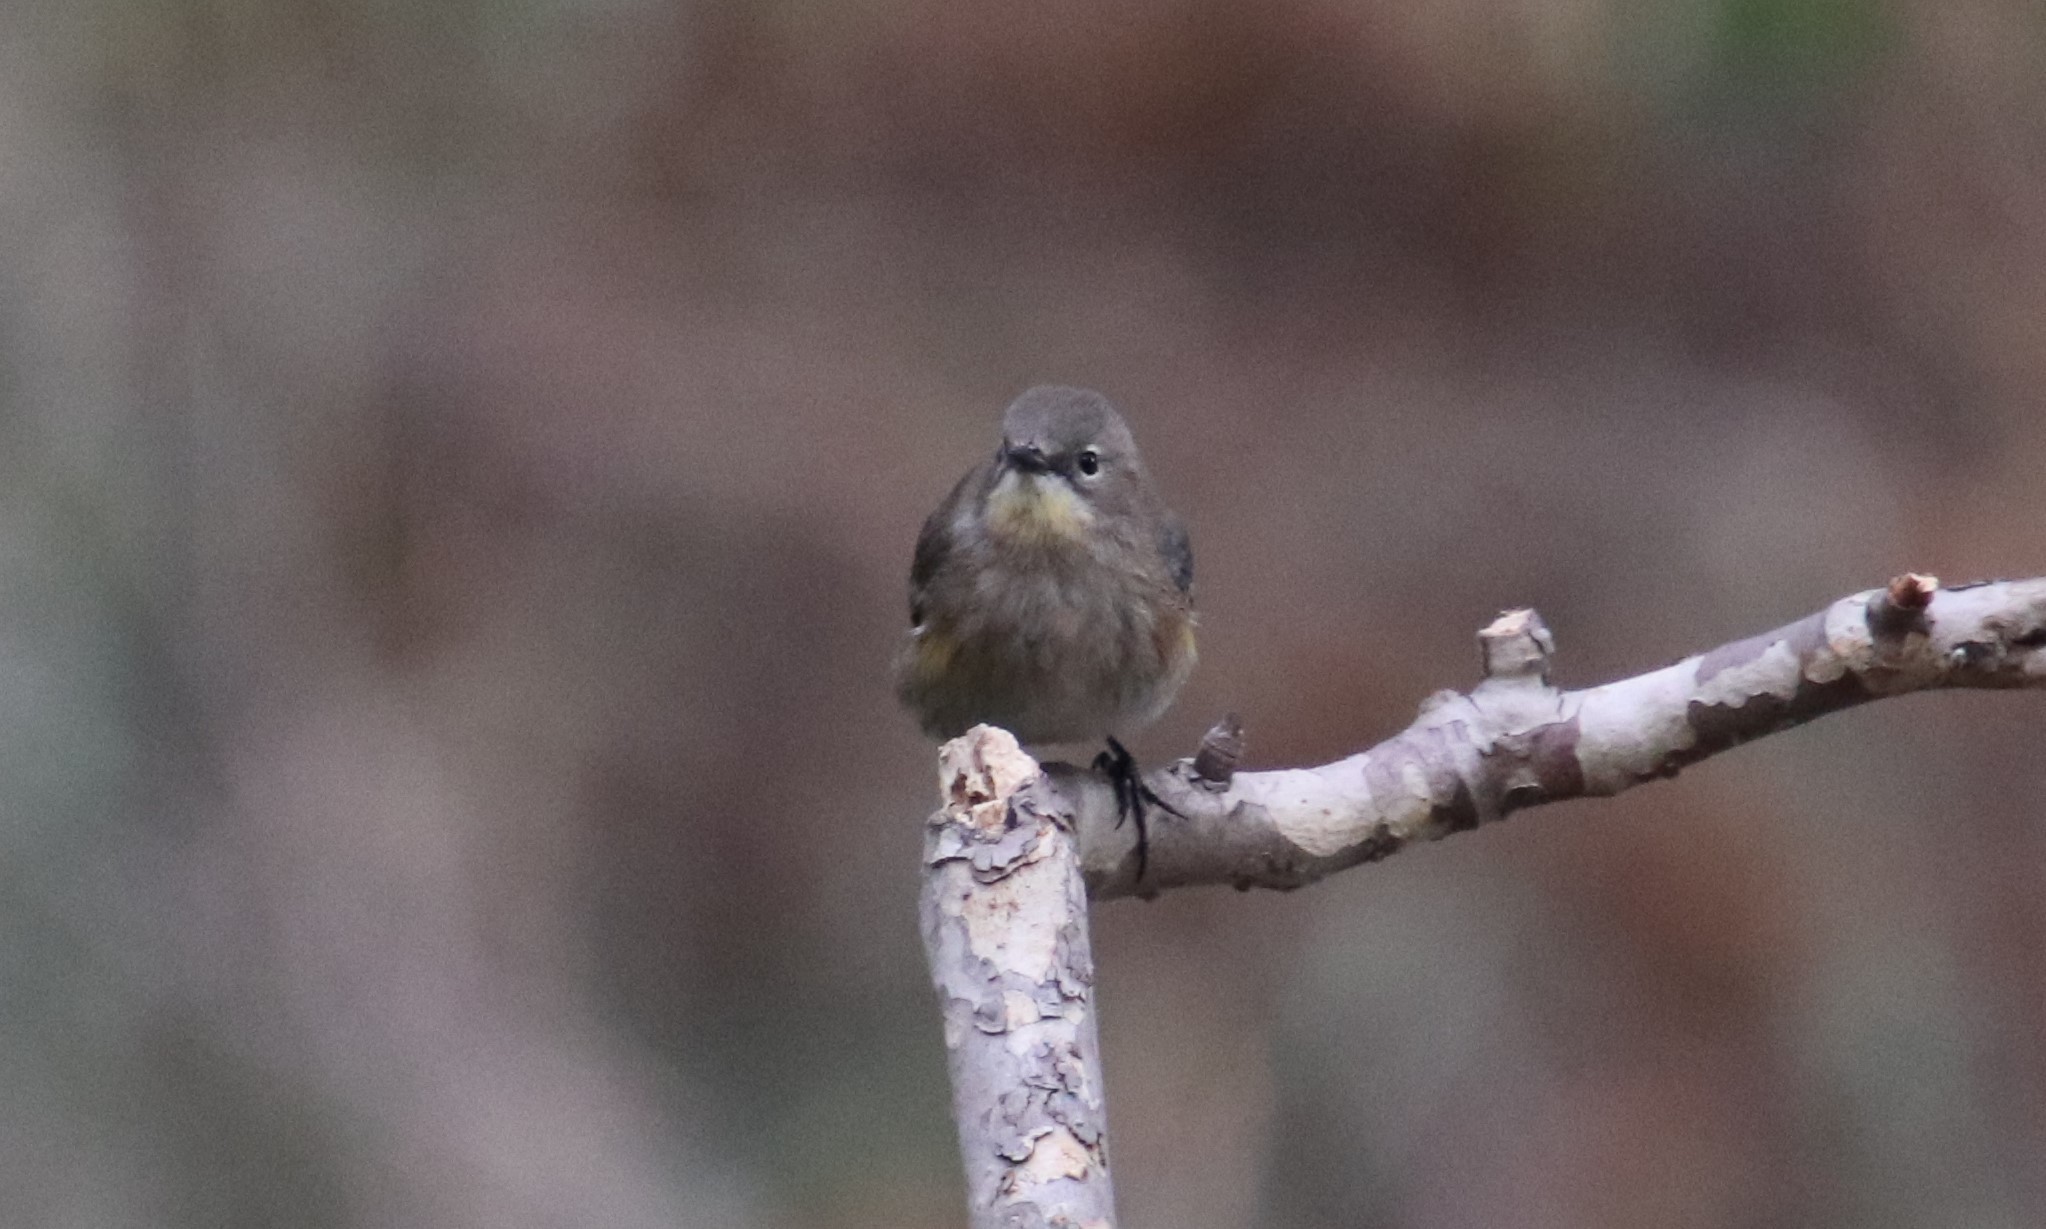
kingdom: Animalia
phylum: Chordata
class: Aves
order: Passeriformes
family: Parulidae
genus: Setophaga
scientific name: Setophaga auduboni
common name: Audubon's warbler
